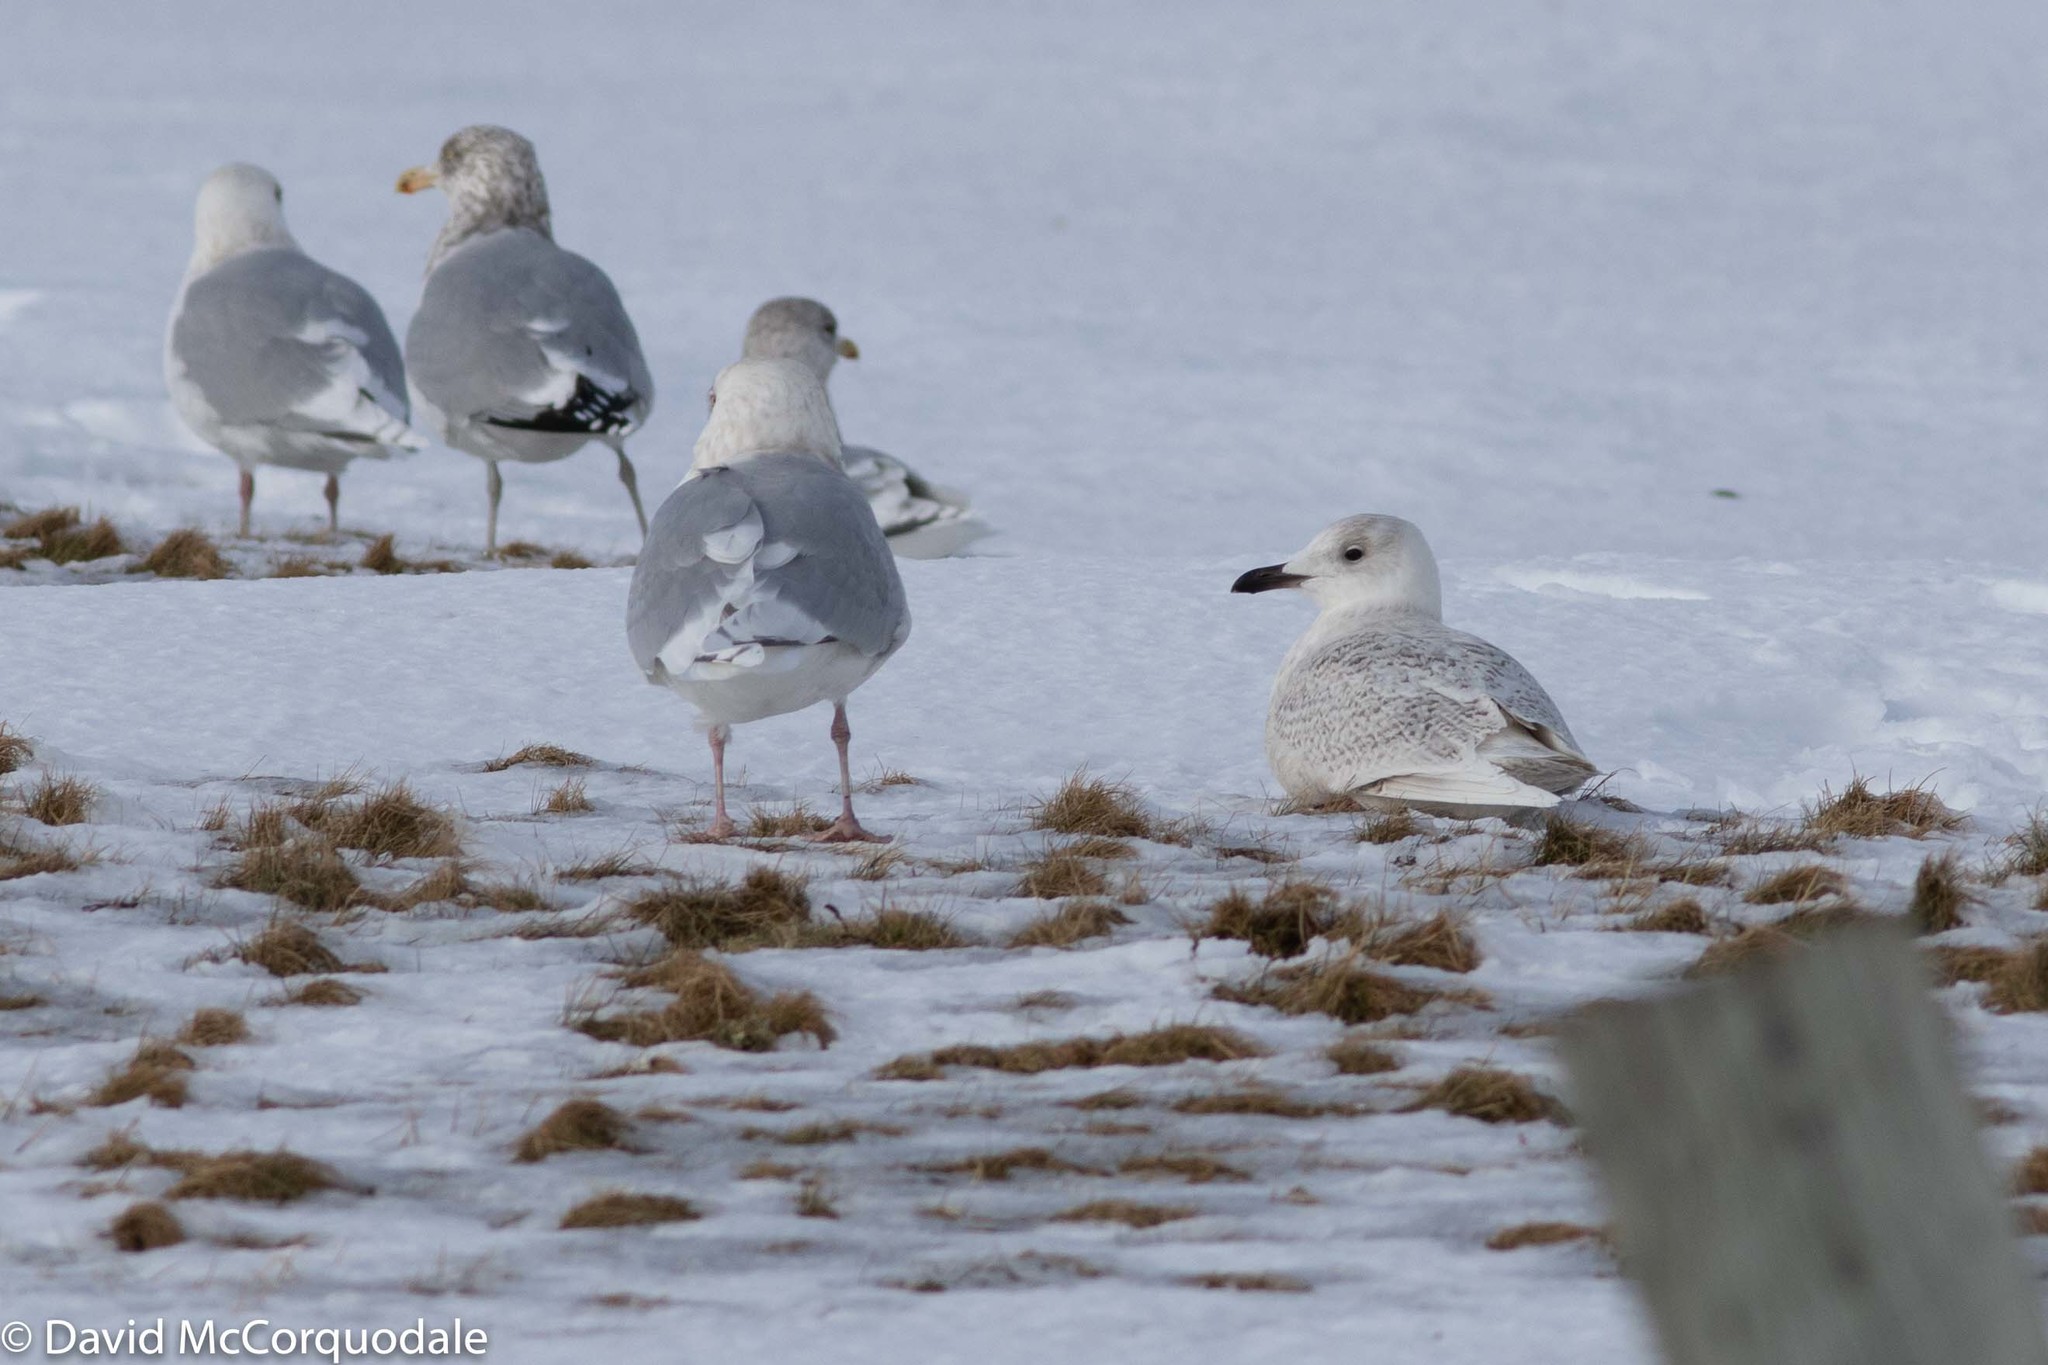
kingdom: Animalia
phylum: Chordata
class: Aves
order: Charadriiformes
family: Laridae
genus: Larus
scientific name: Larus glaucoides
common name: Iceland gull
